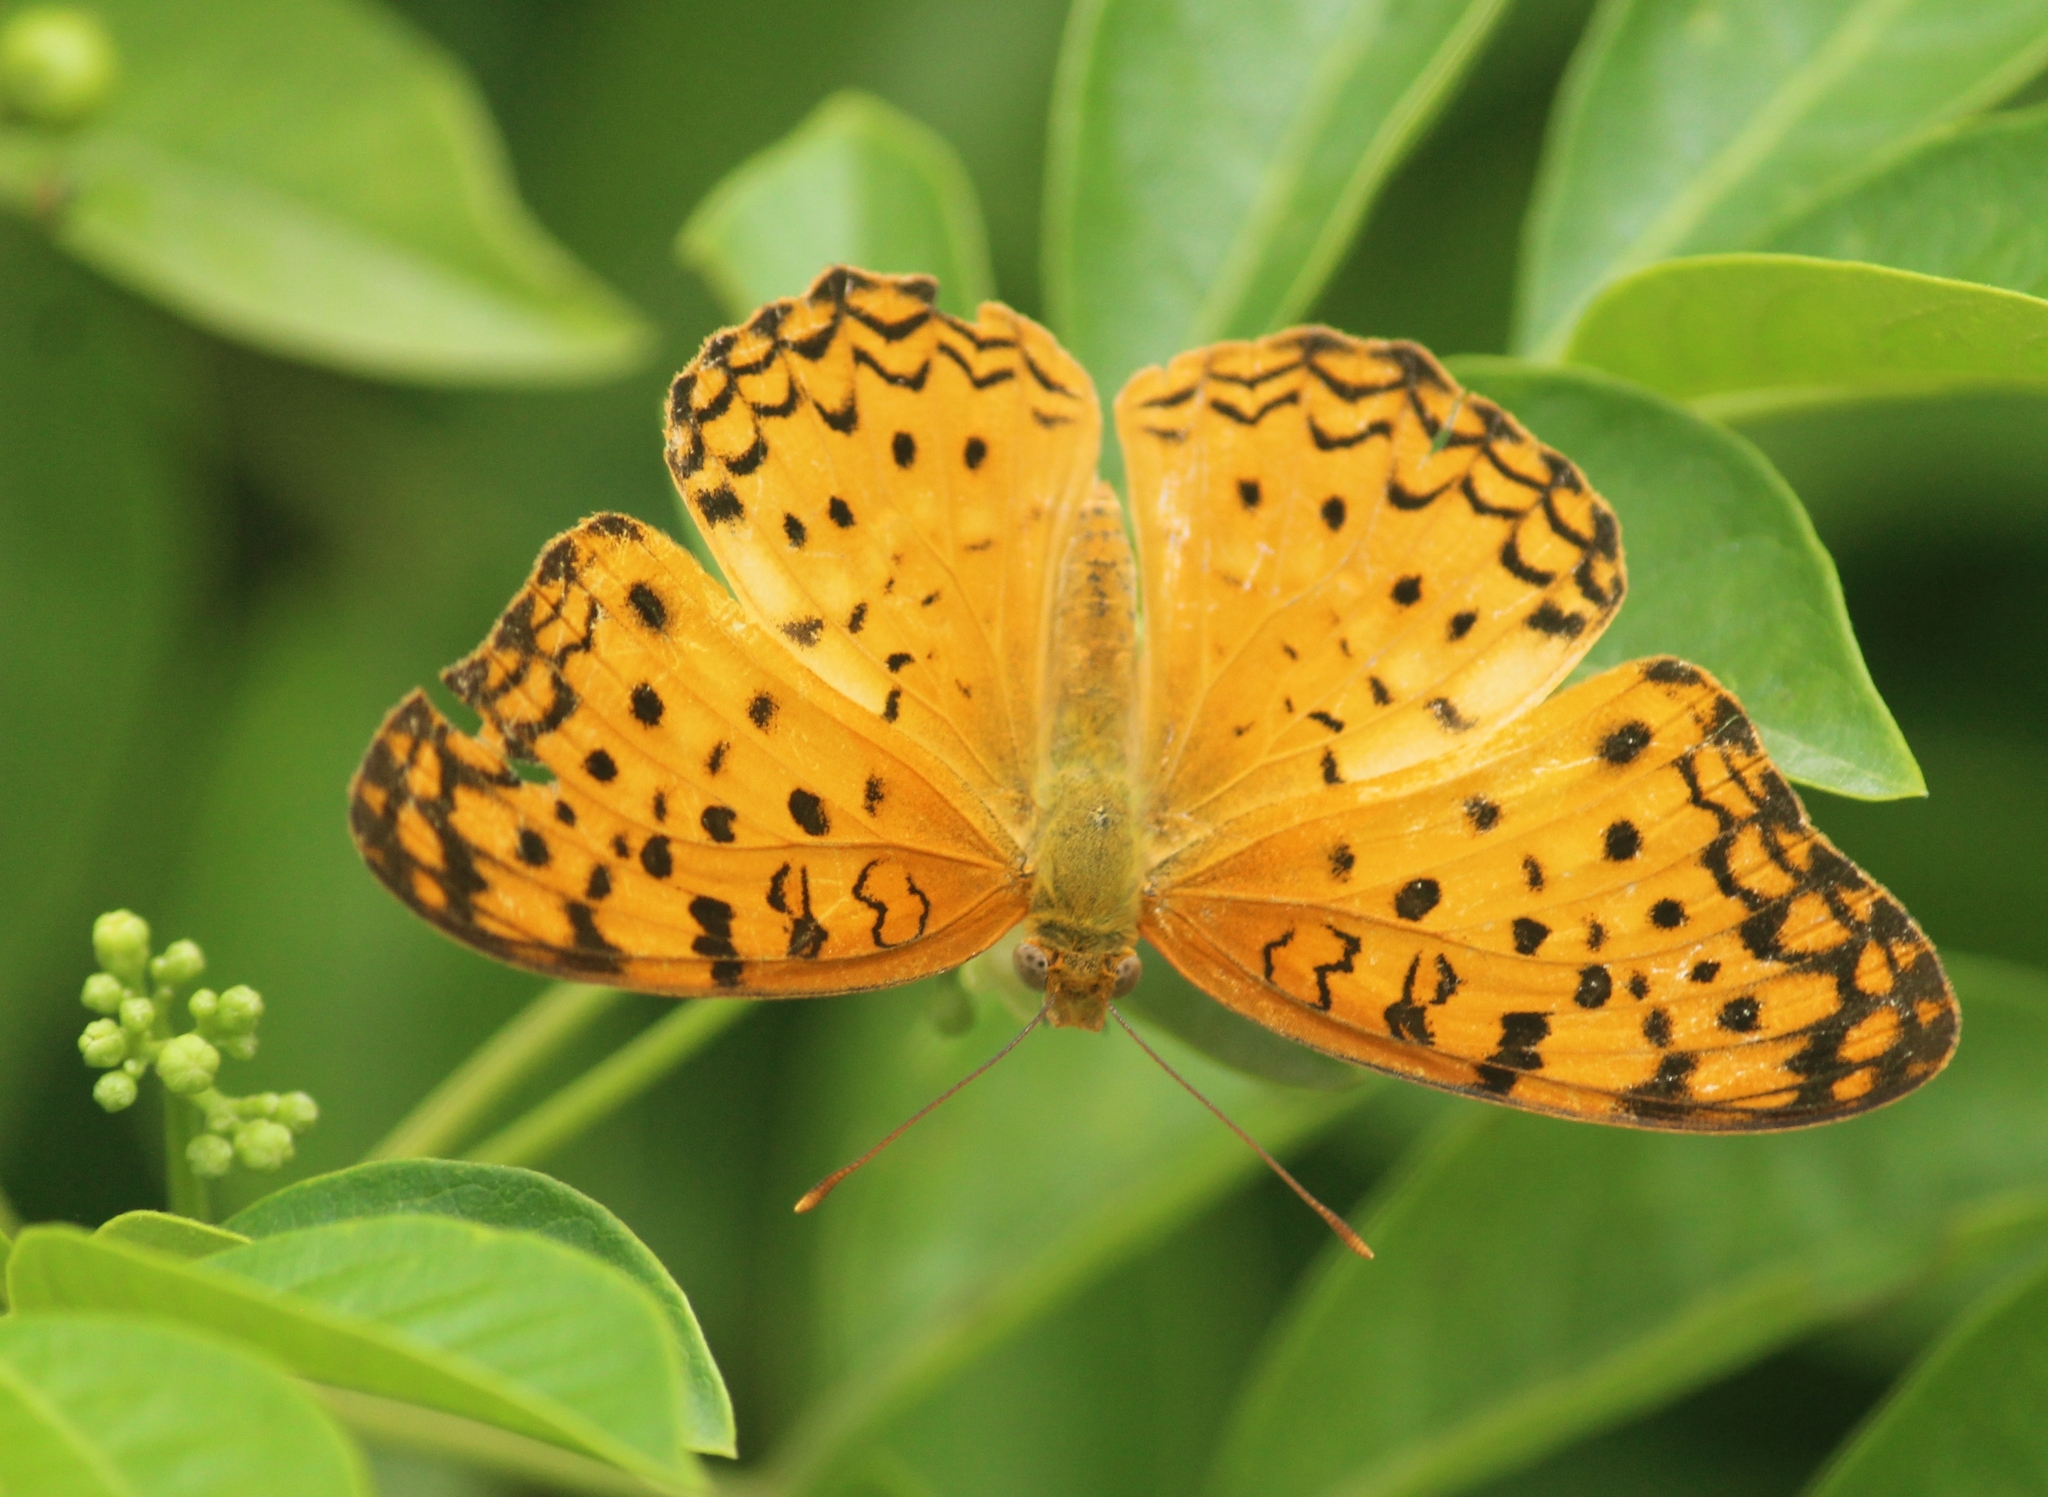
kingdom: Animalia
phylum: Arthropoda
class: Insecta
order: Lepidoptera
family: Nymphalidae
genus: Phalanta
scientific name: Phalanta phalantha
